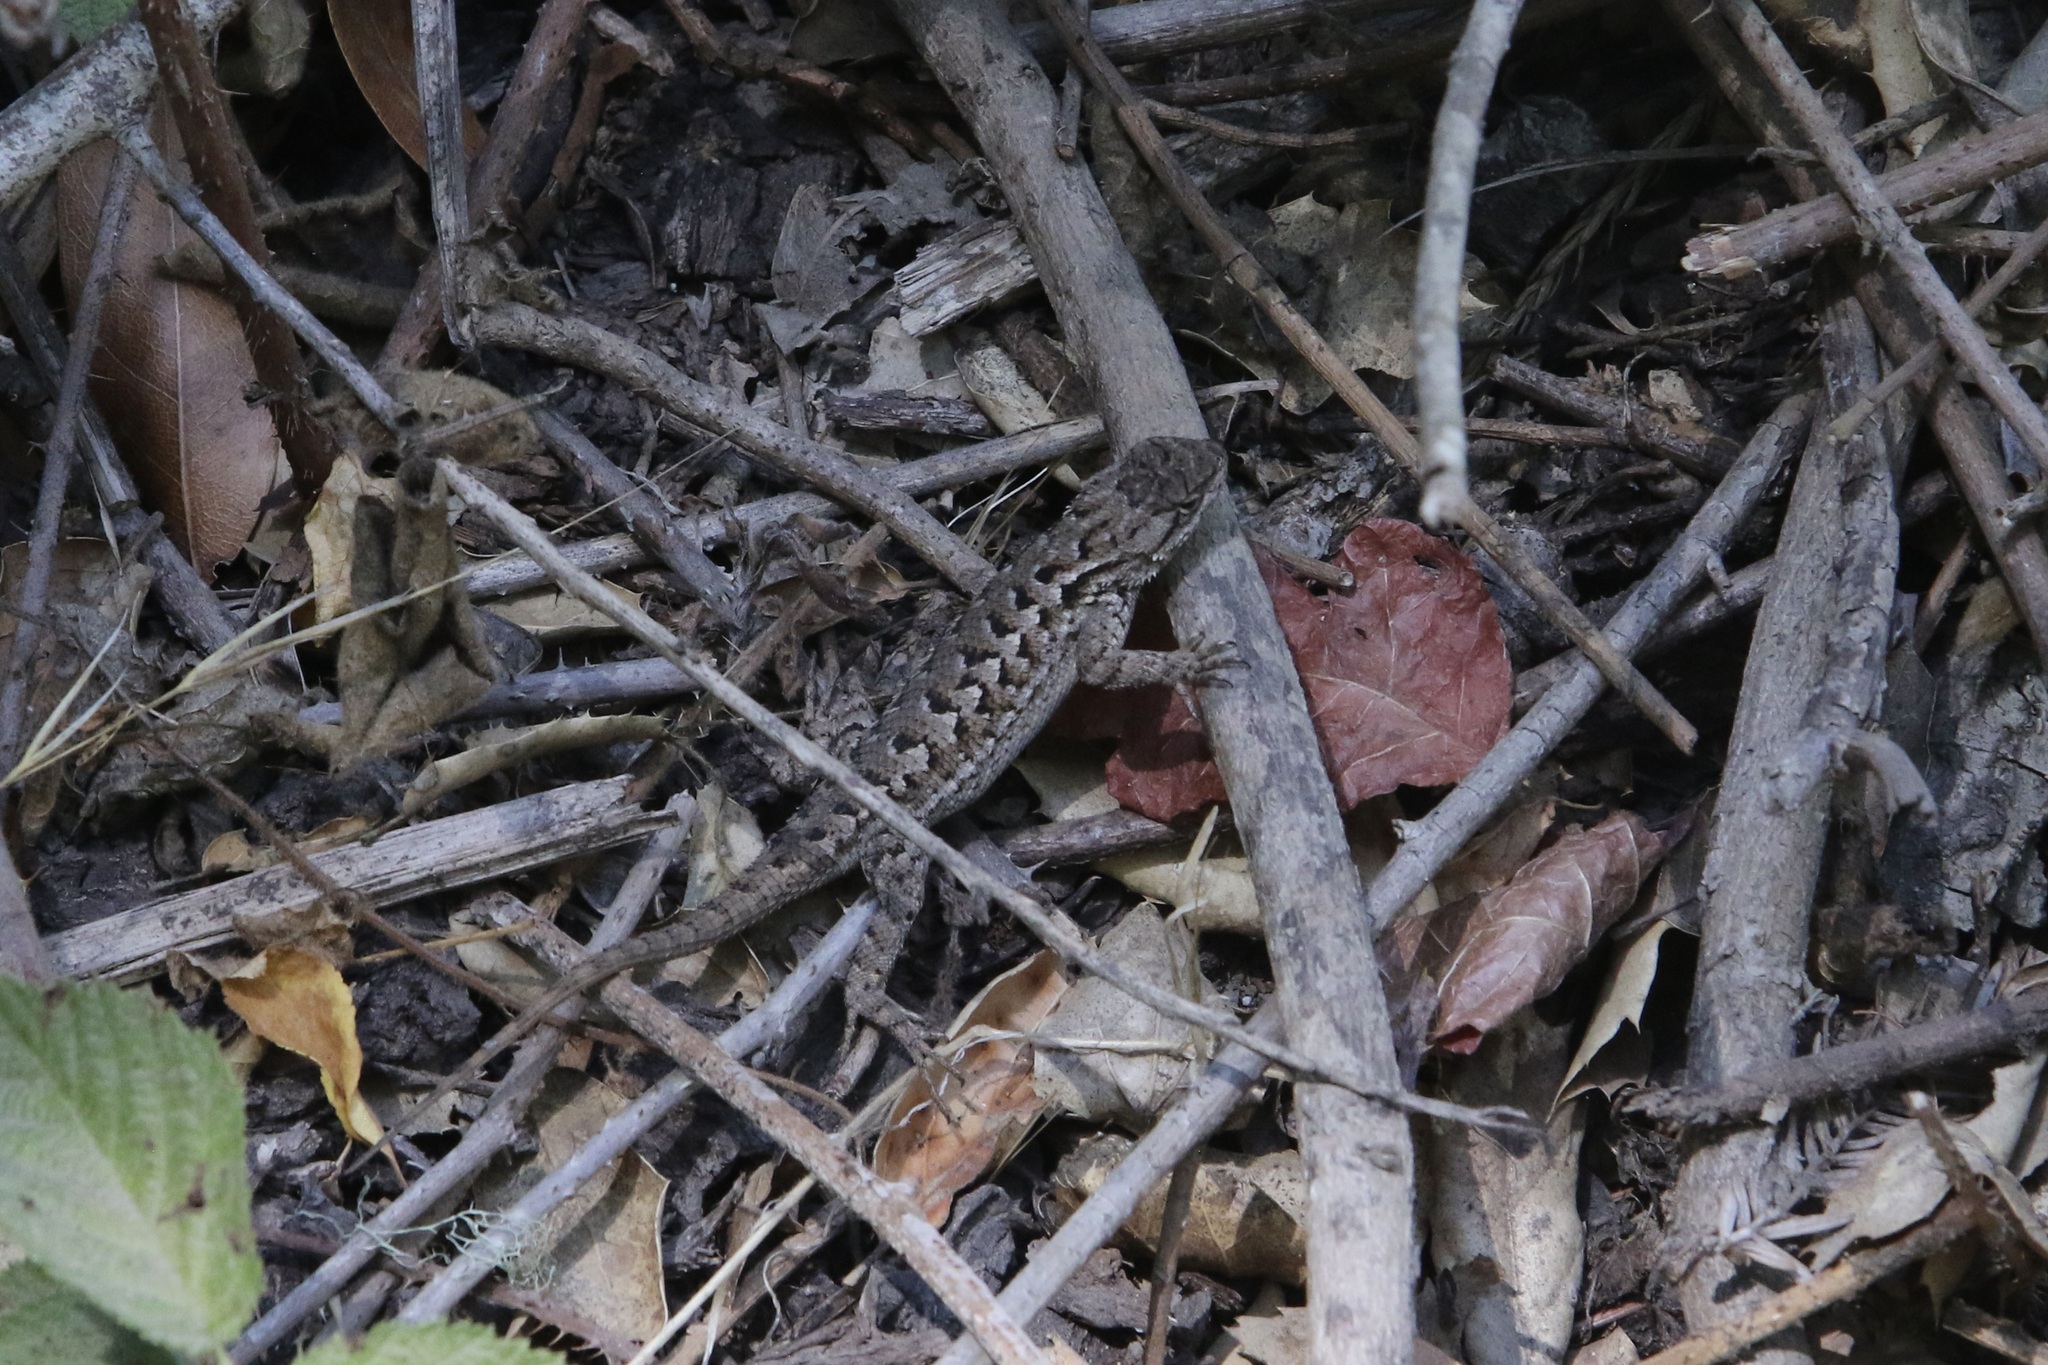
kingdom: Animalia
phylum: Chordata
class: Squamata
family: Phrynosomatidae
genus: Sceloporus
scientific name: Sceloporus occidentalis
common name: Western fence lizard
